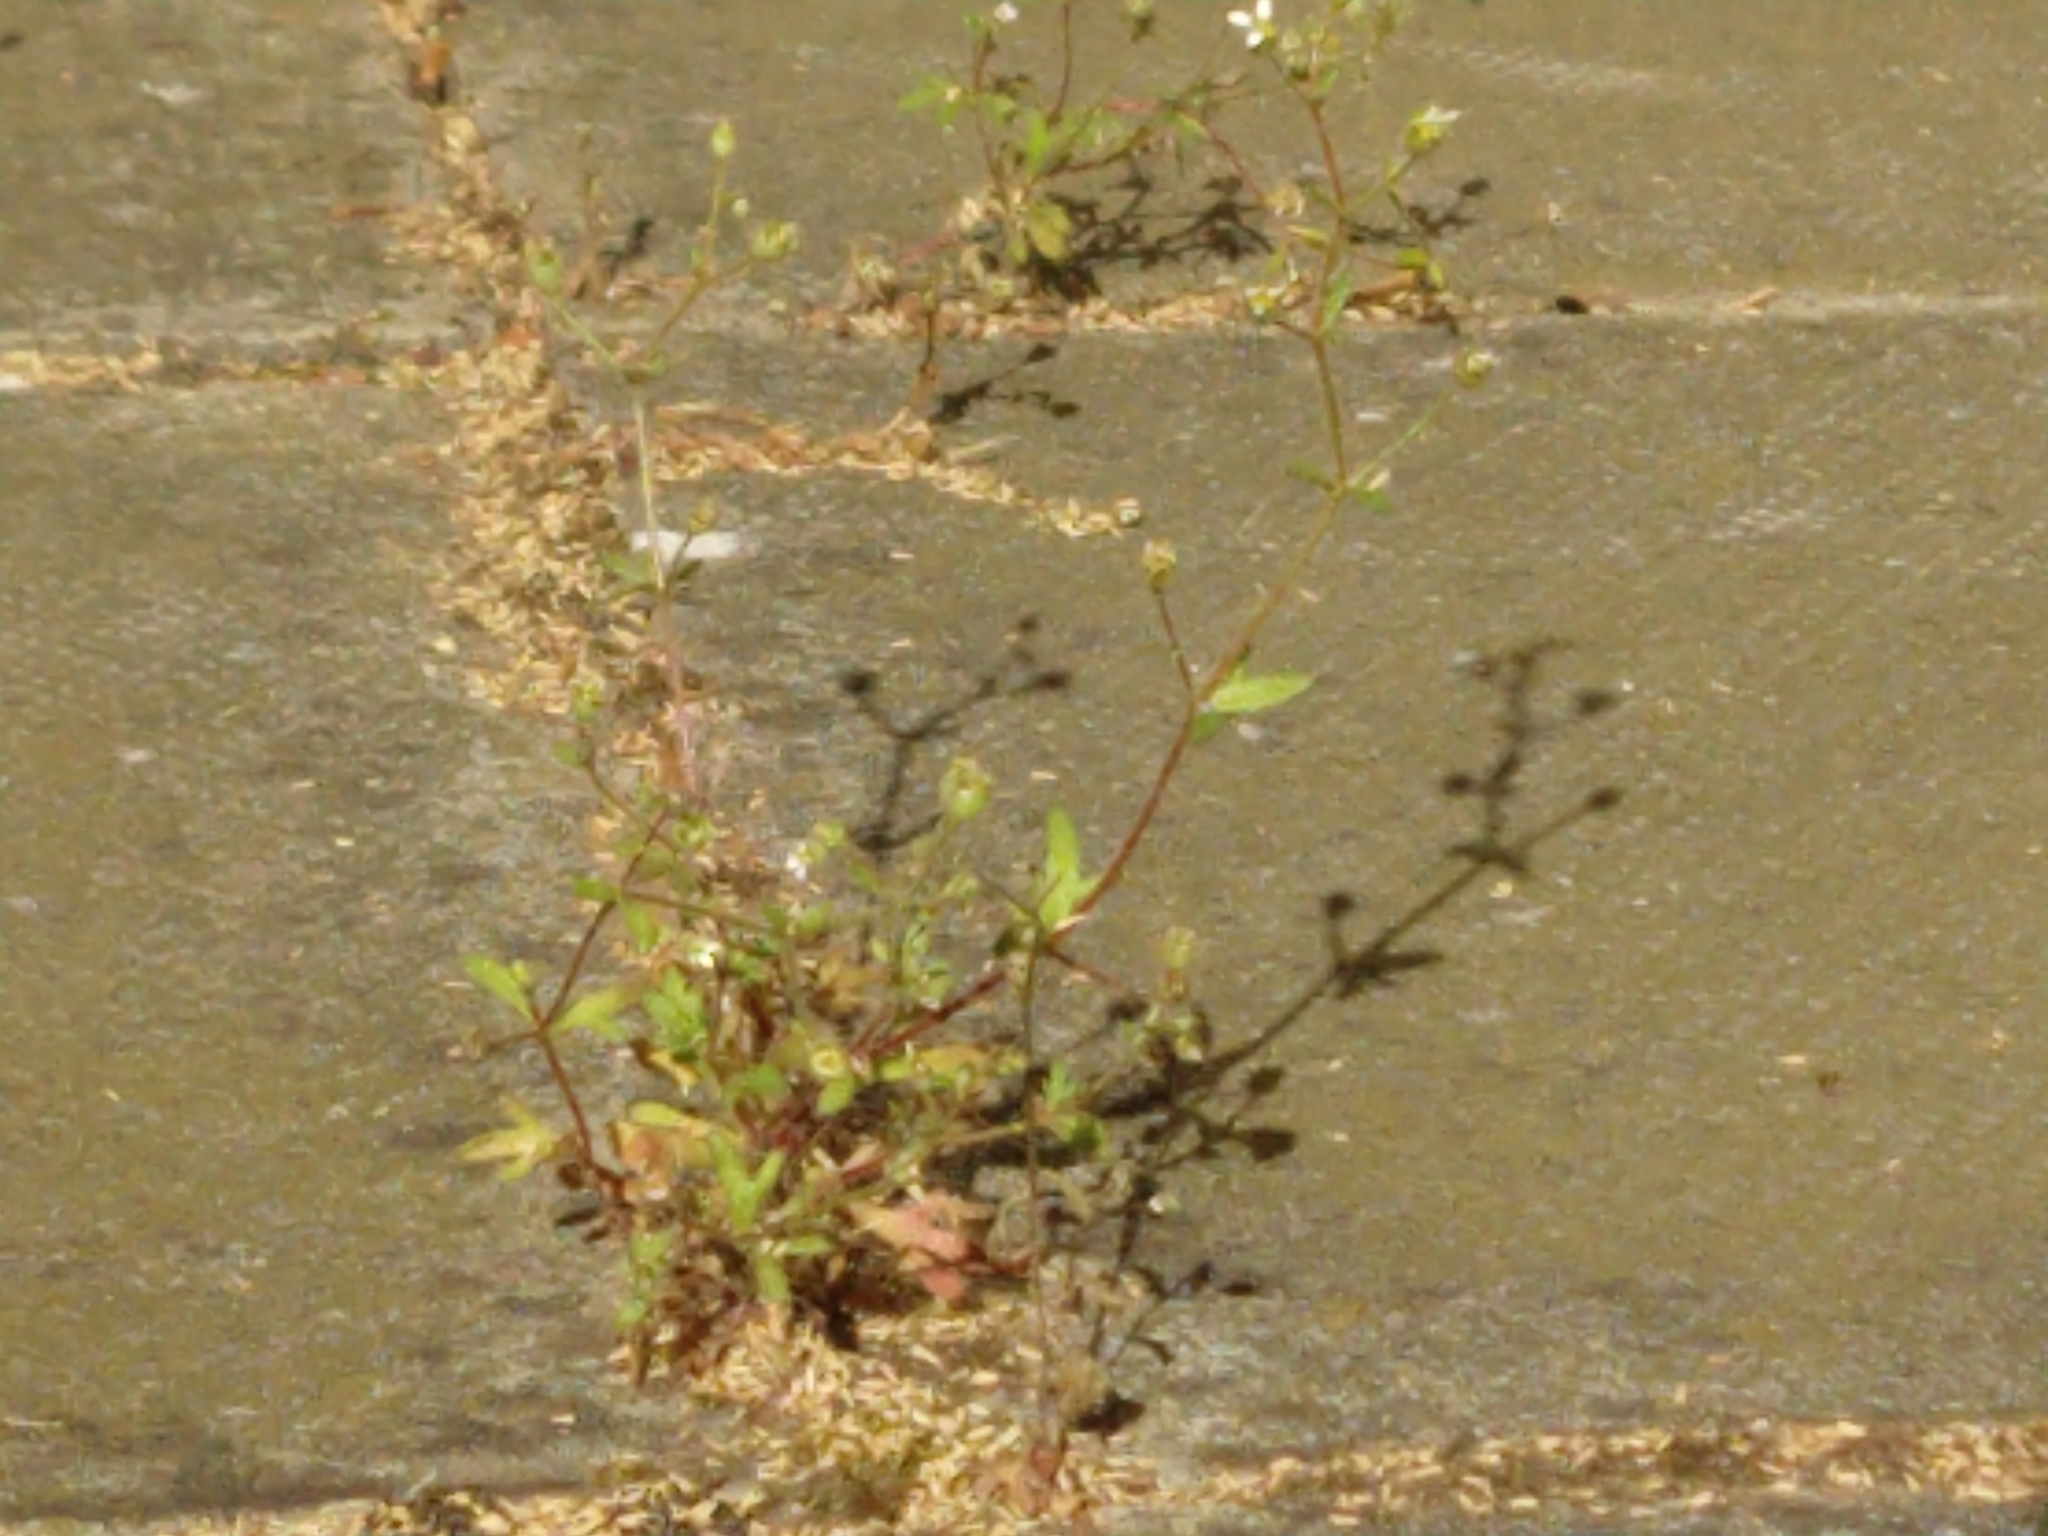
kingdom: Plantae
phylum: Tracheophyta
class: Magnoliopsida
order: Saxifragales
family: Saxifragaceae
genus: Saxifraga
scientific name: Saxifraga tridactylites
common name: Rue-leaved saxifrage
